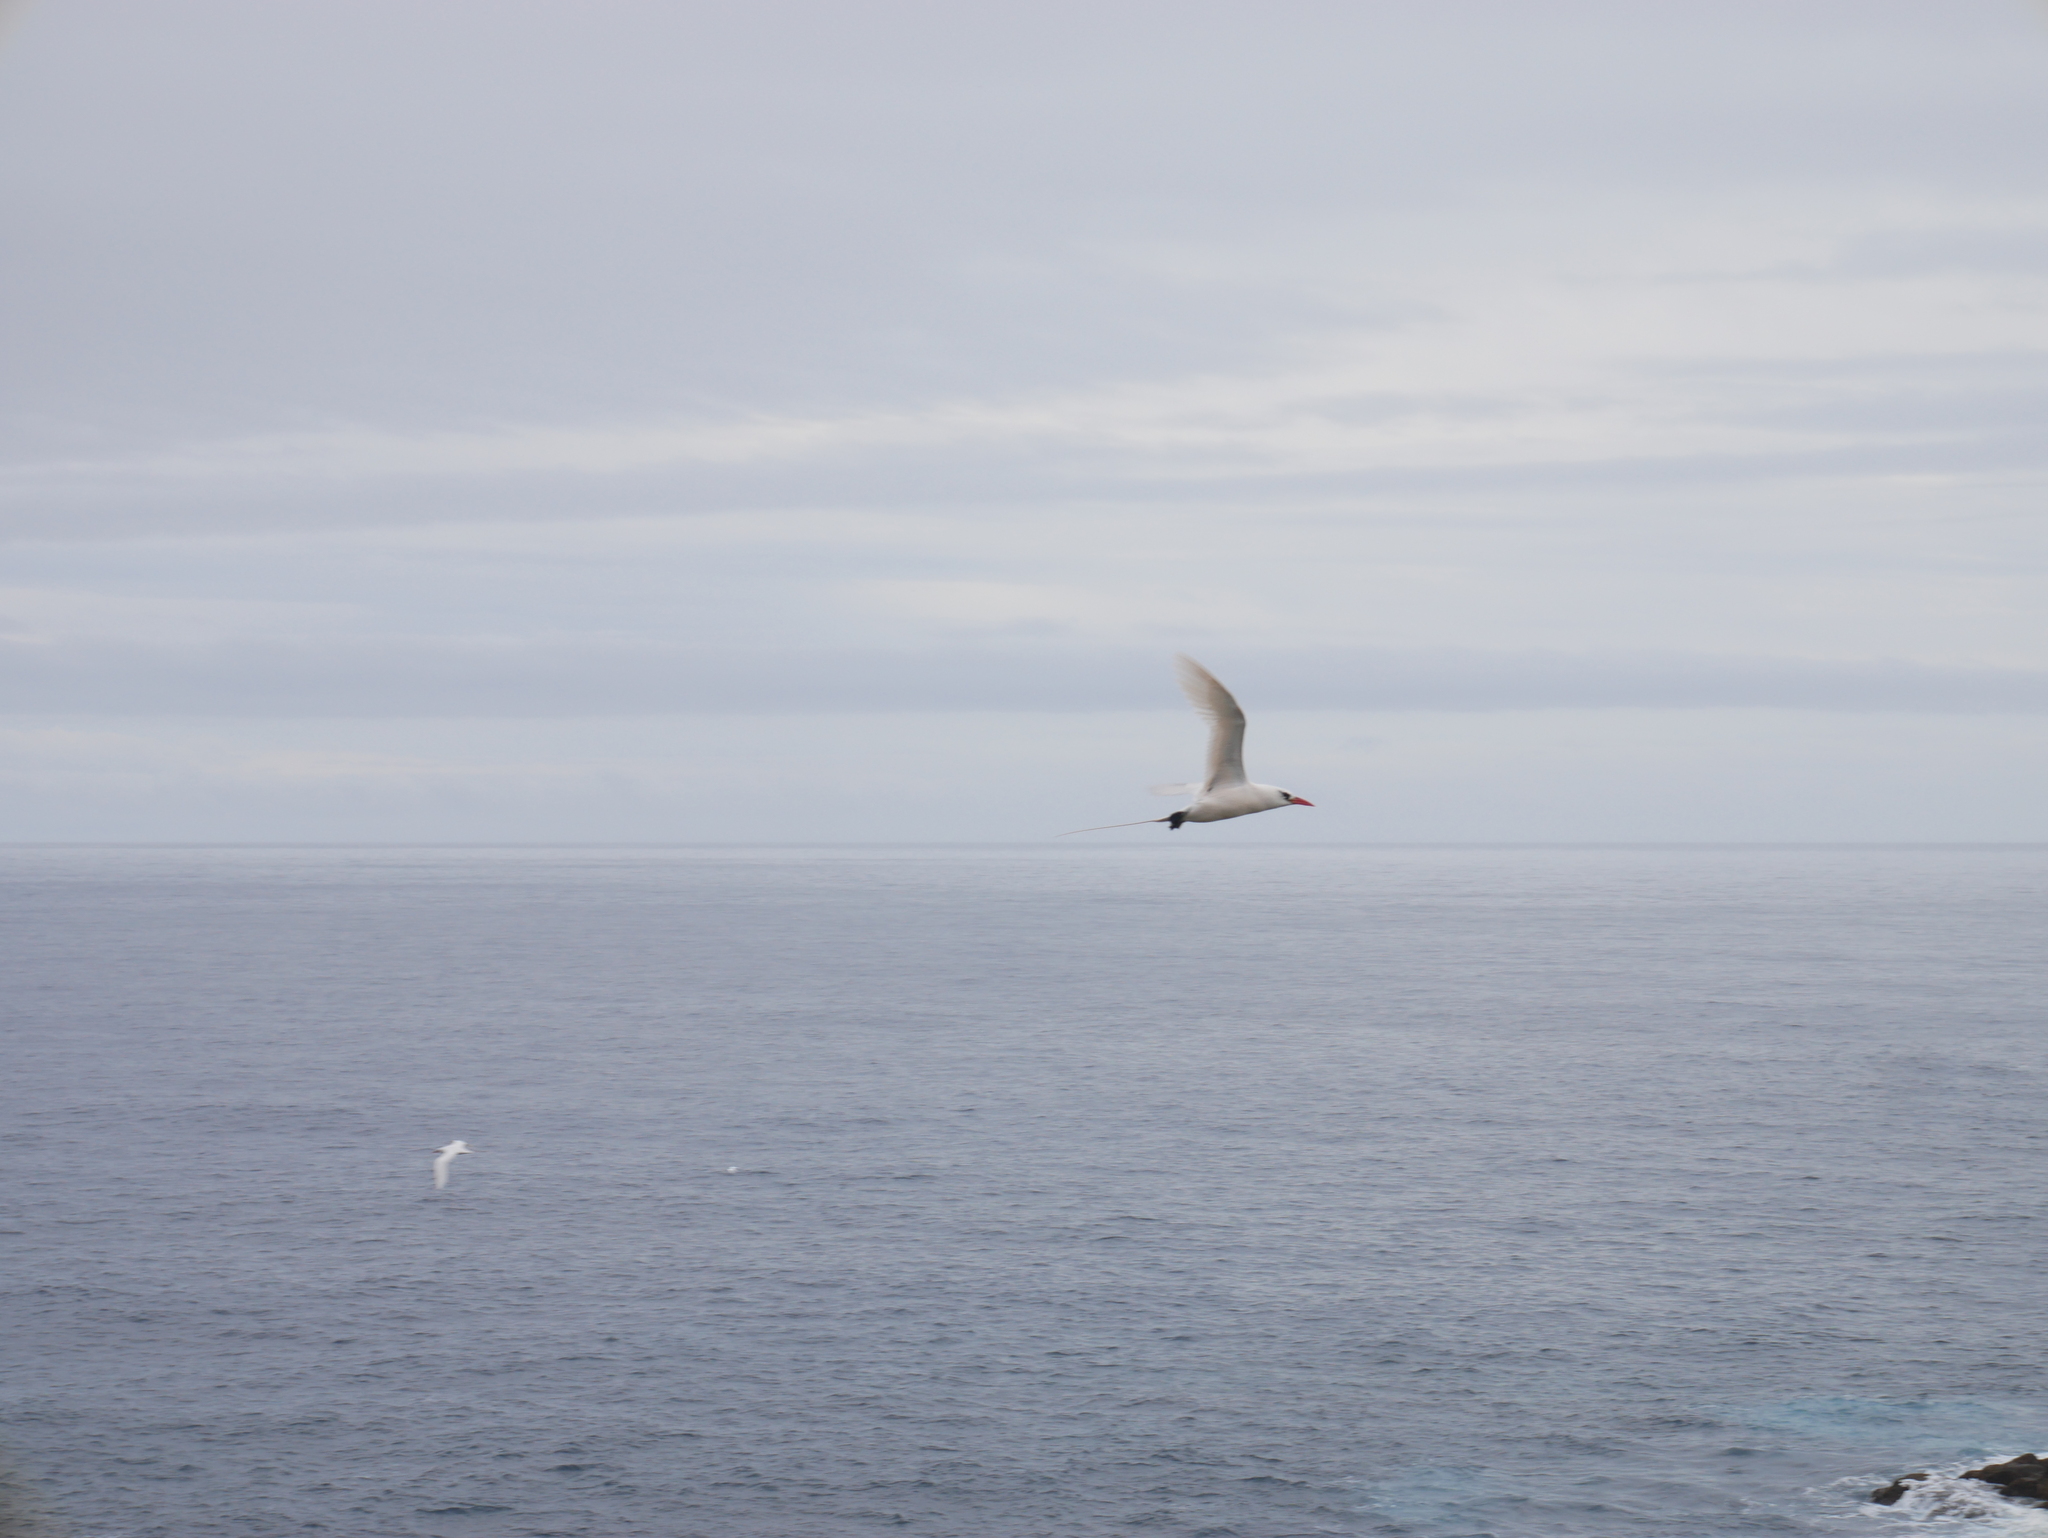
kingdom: Animalia
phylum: Chordata
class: Aves
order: Phaethontiformes
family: Phaethontidae
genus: Phaethon
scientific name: Phaethon rubricauda
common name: Red-tailed tropicbird
